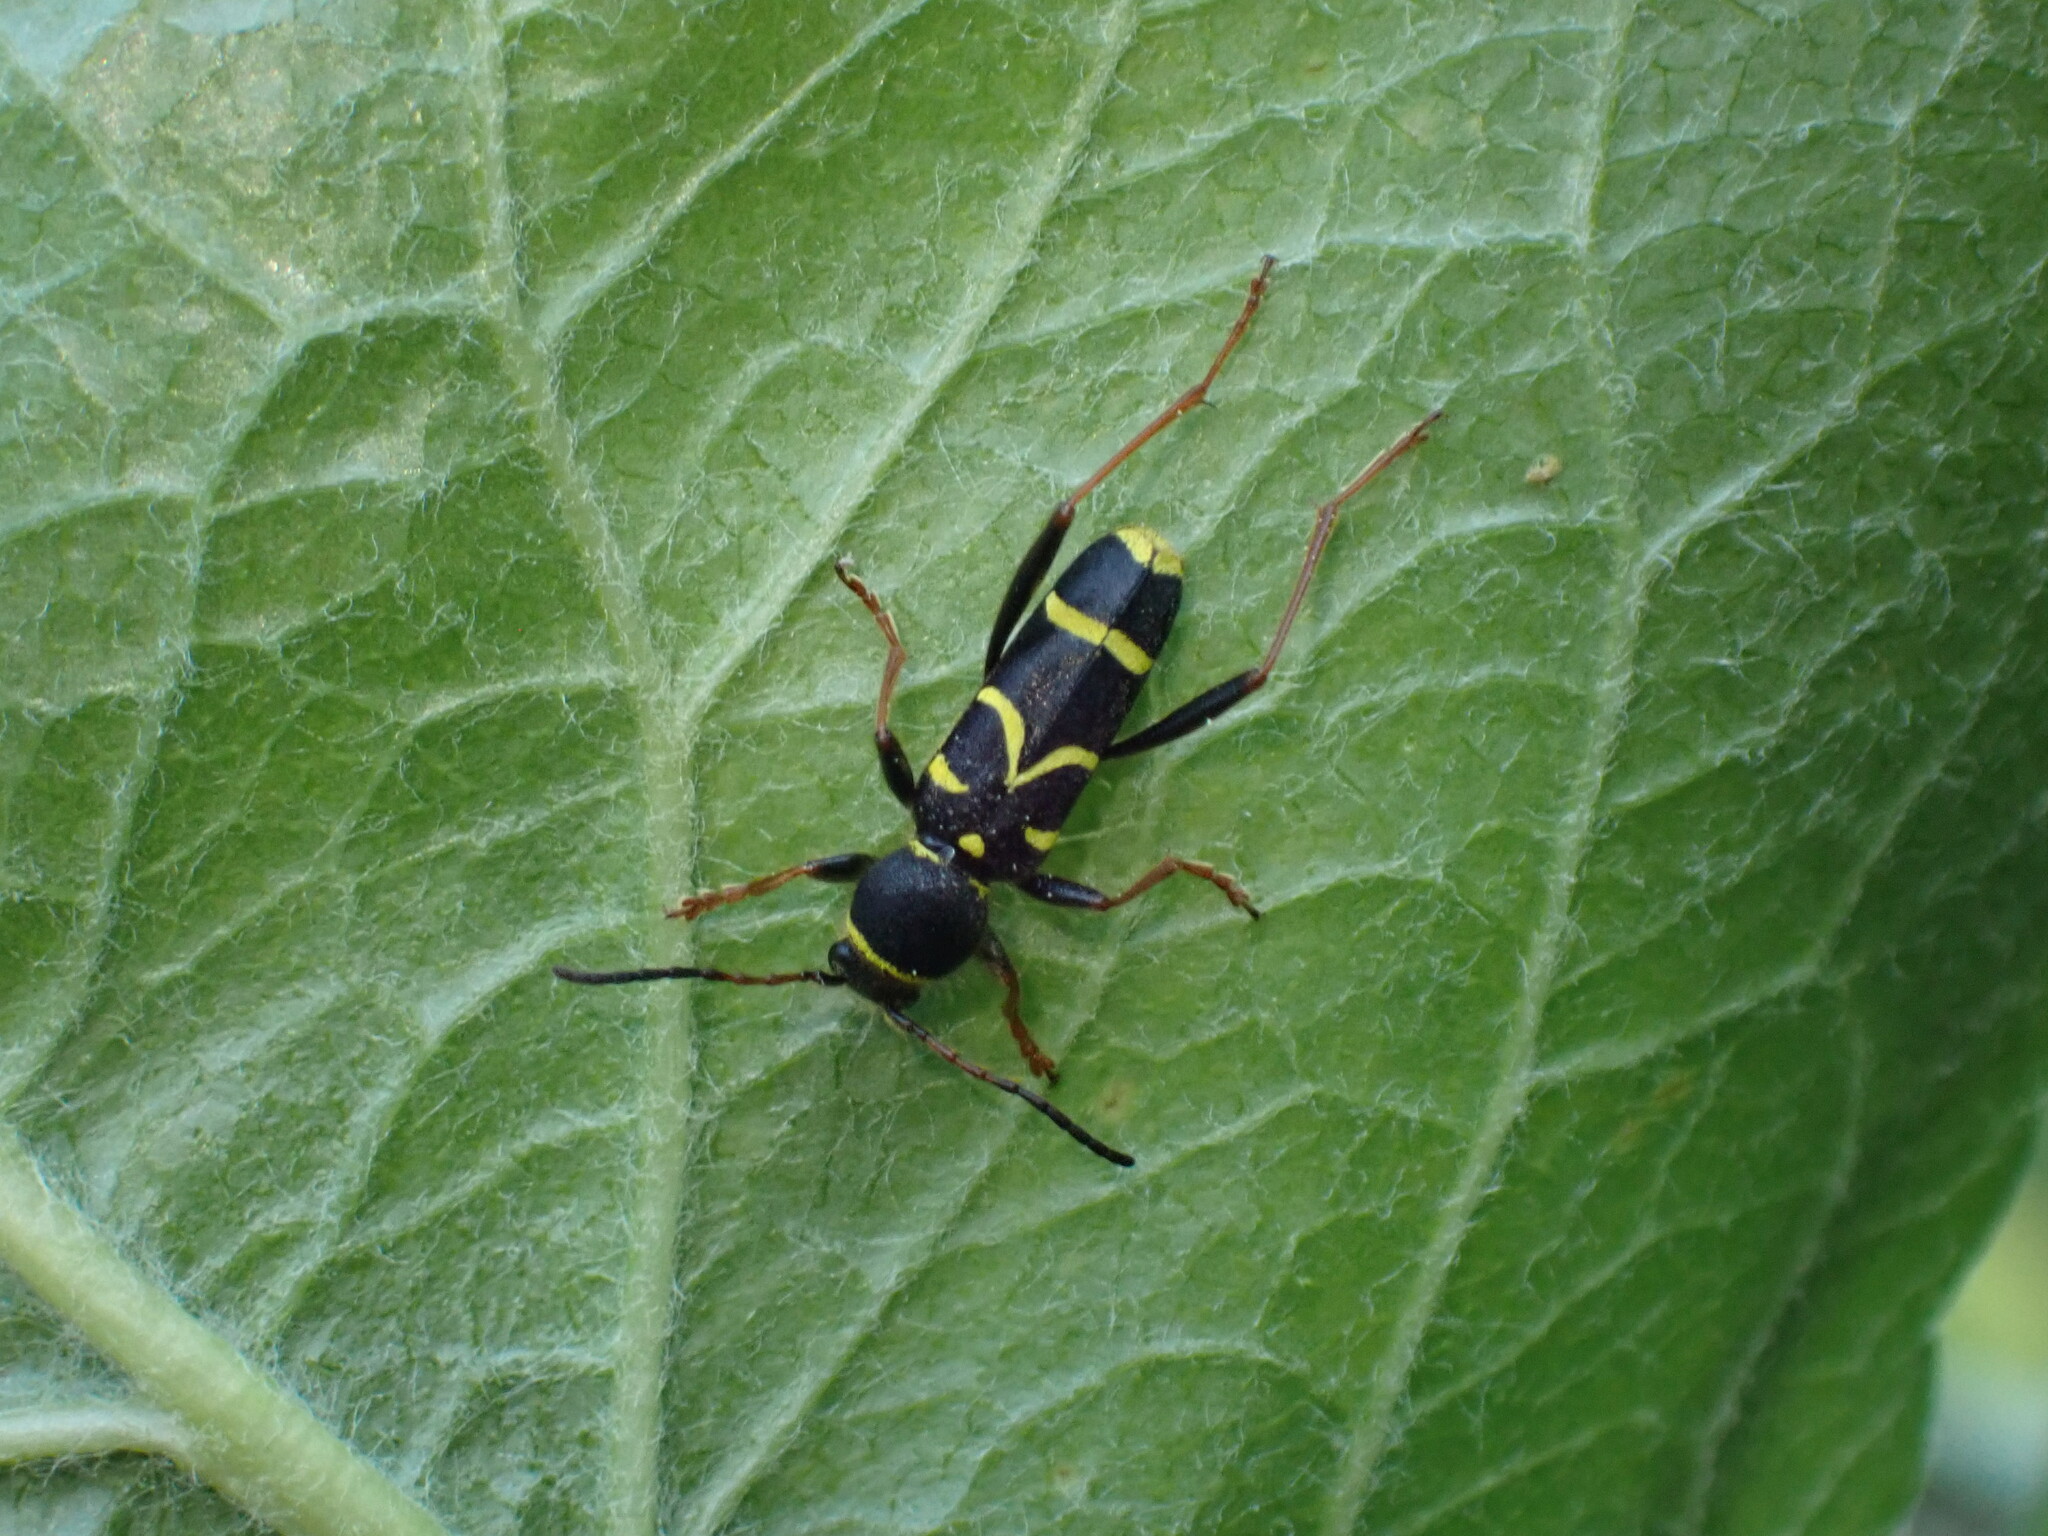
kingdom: Animalia
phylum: Arthropoda
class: Insecta
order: Coleoptera
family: Cerambycidae
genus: Clytus
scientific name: Clytus arietis
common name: Wasp beetle
